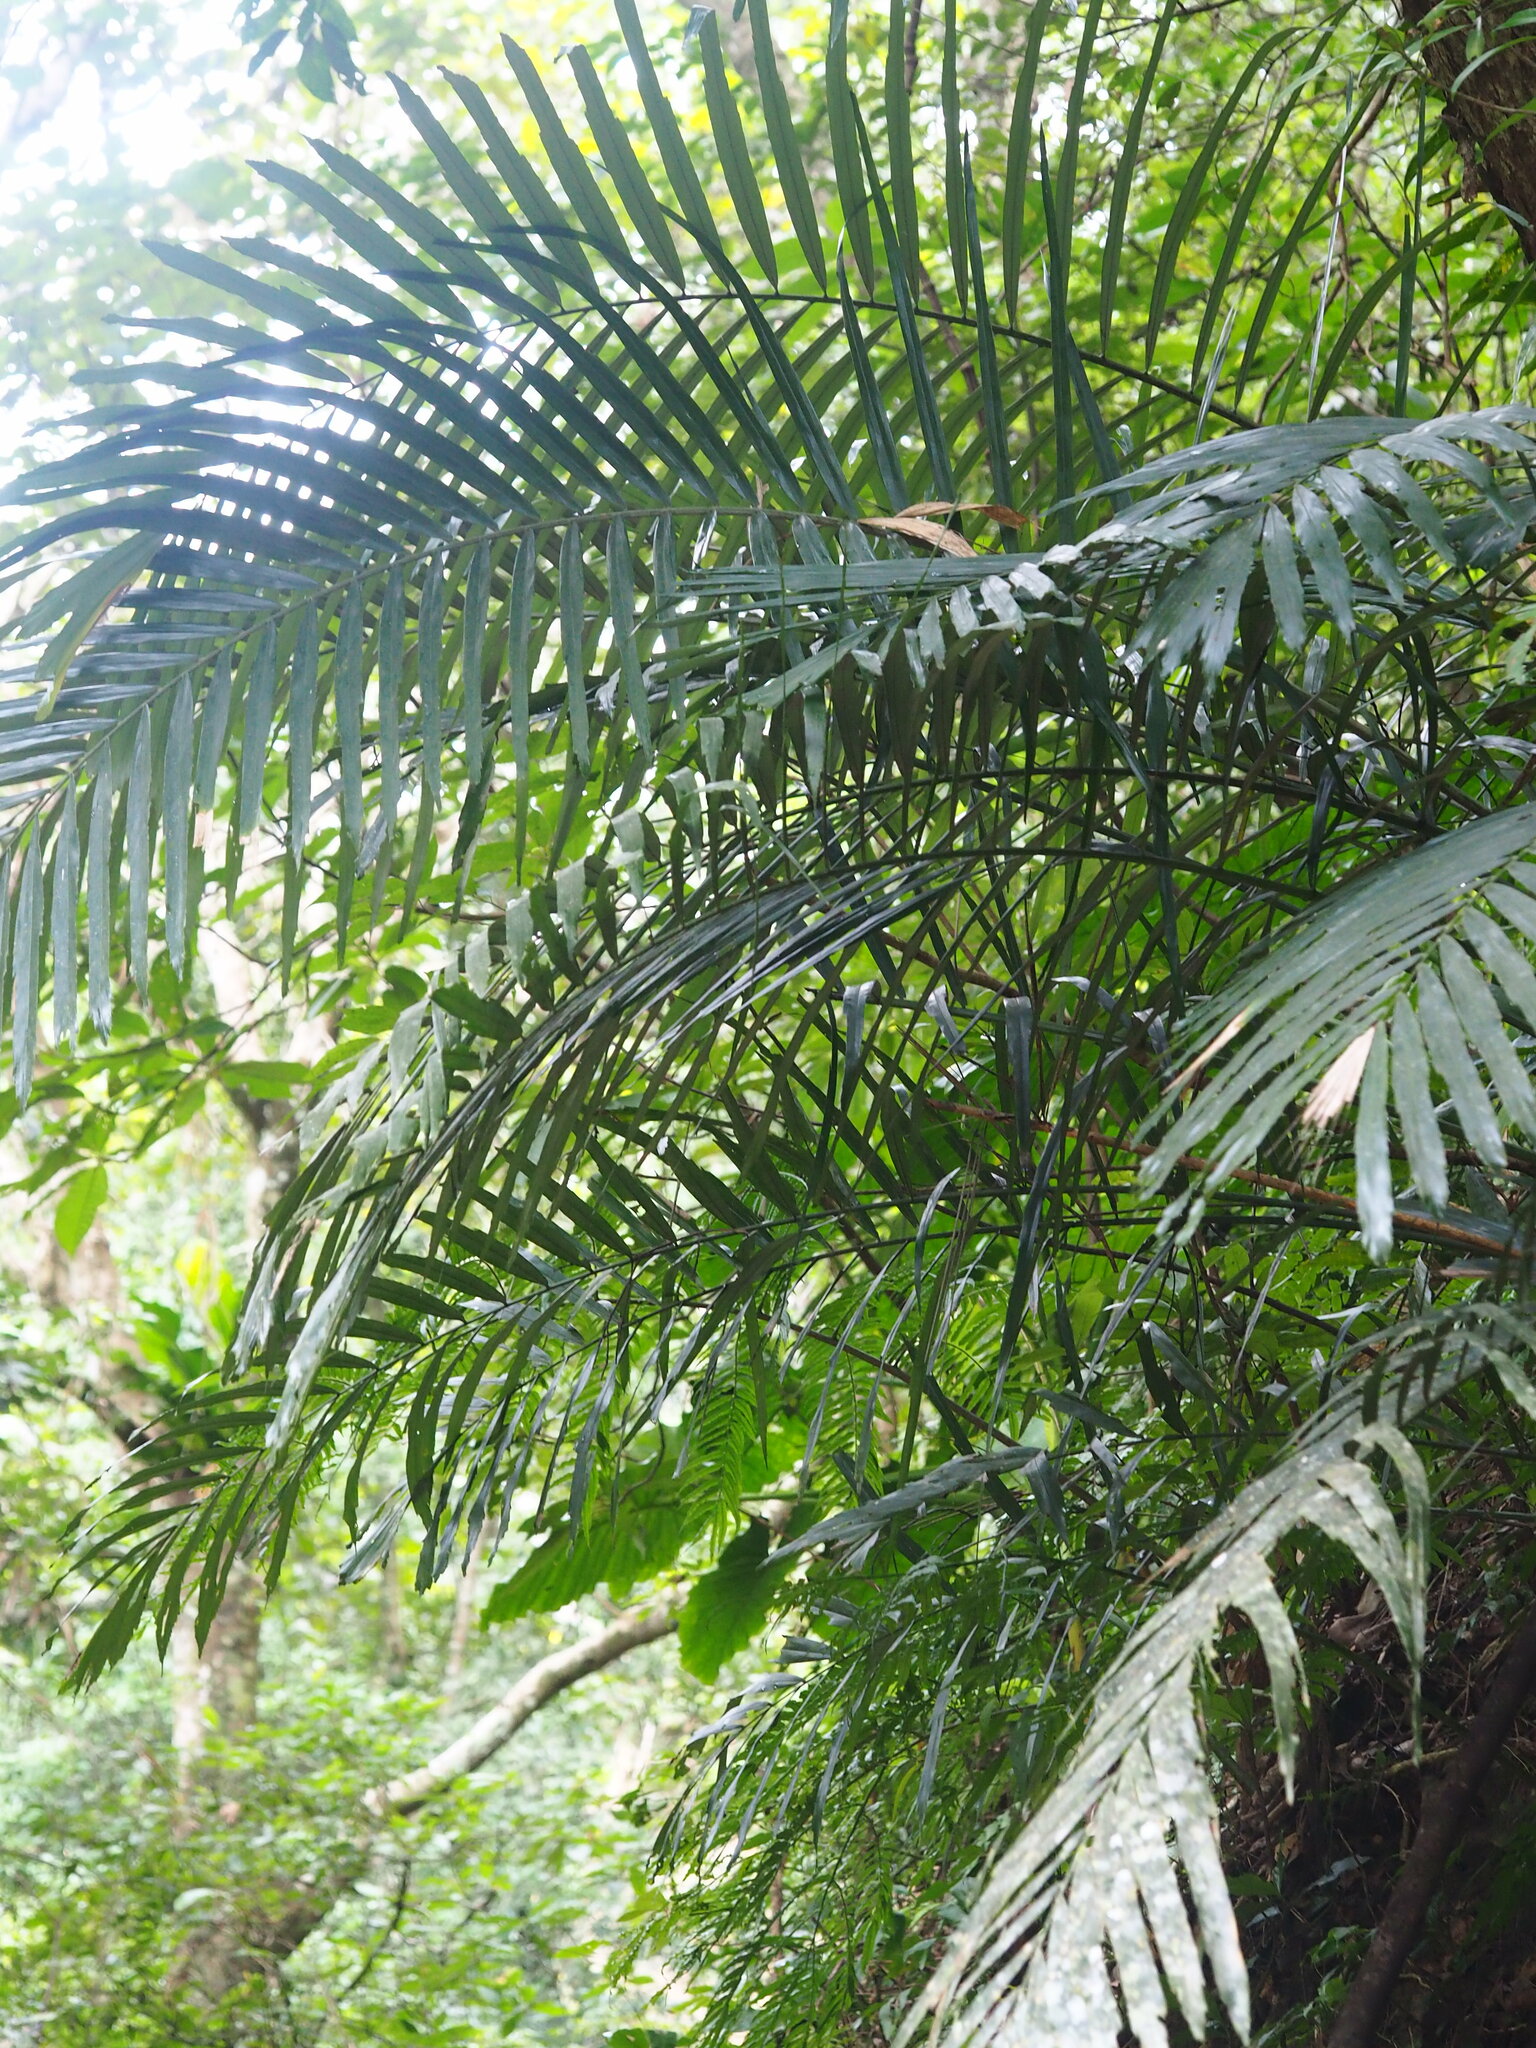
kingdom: Plantae
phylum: Tracheophyta
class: Liliopsida
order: Arecales
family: Arecaceae
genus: Arenga
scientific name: Arenga engleri
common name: Formosan sugar palm
